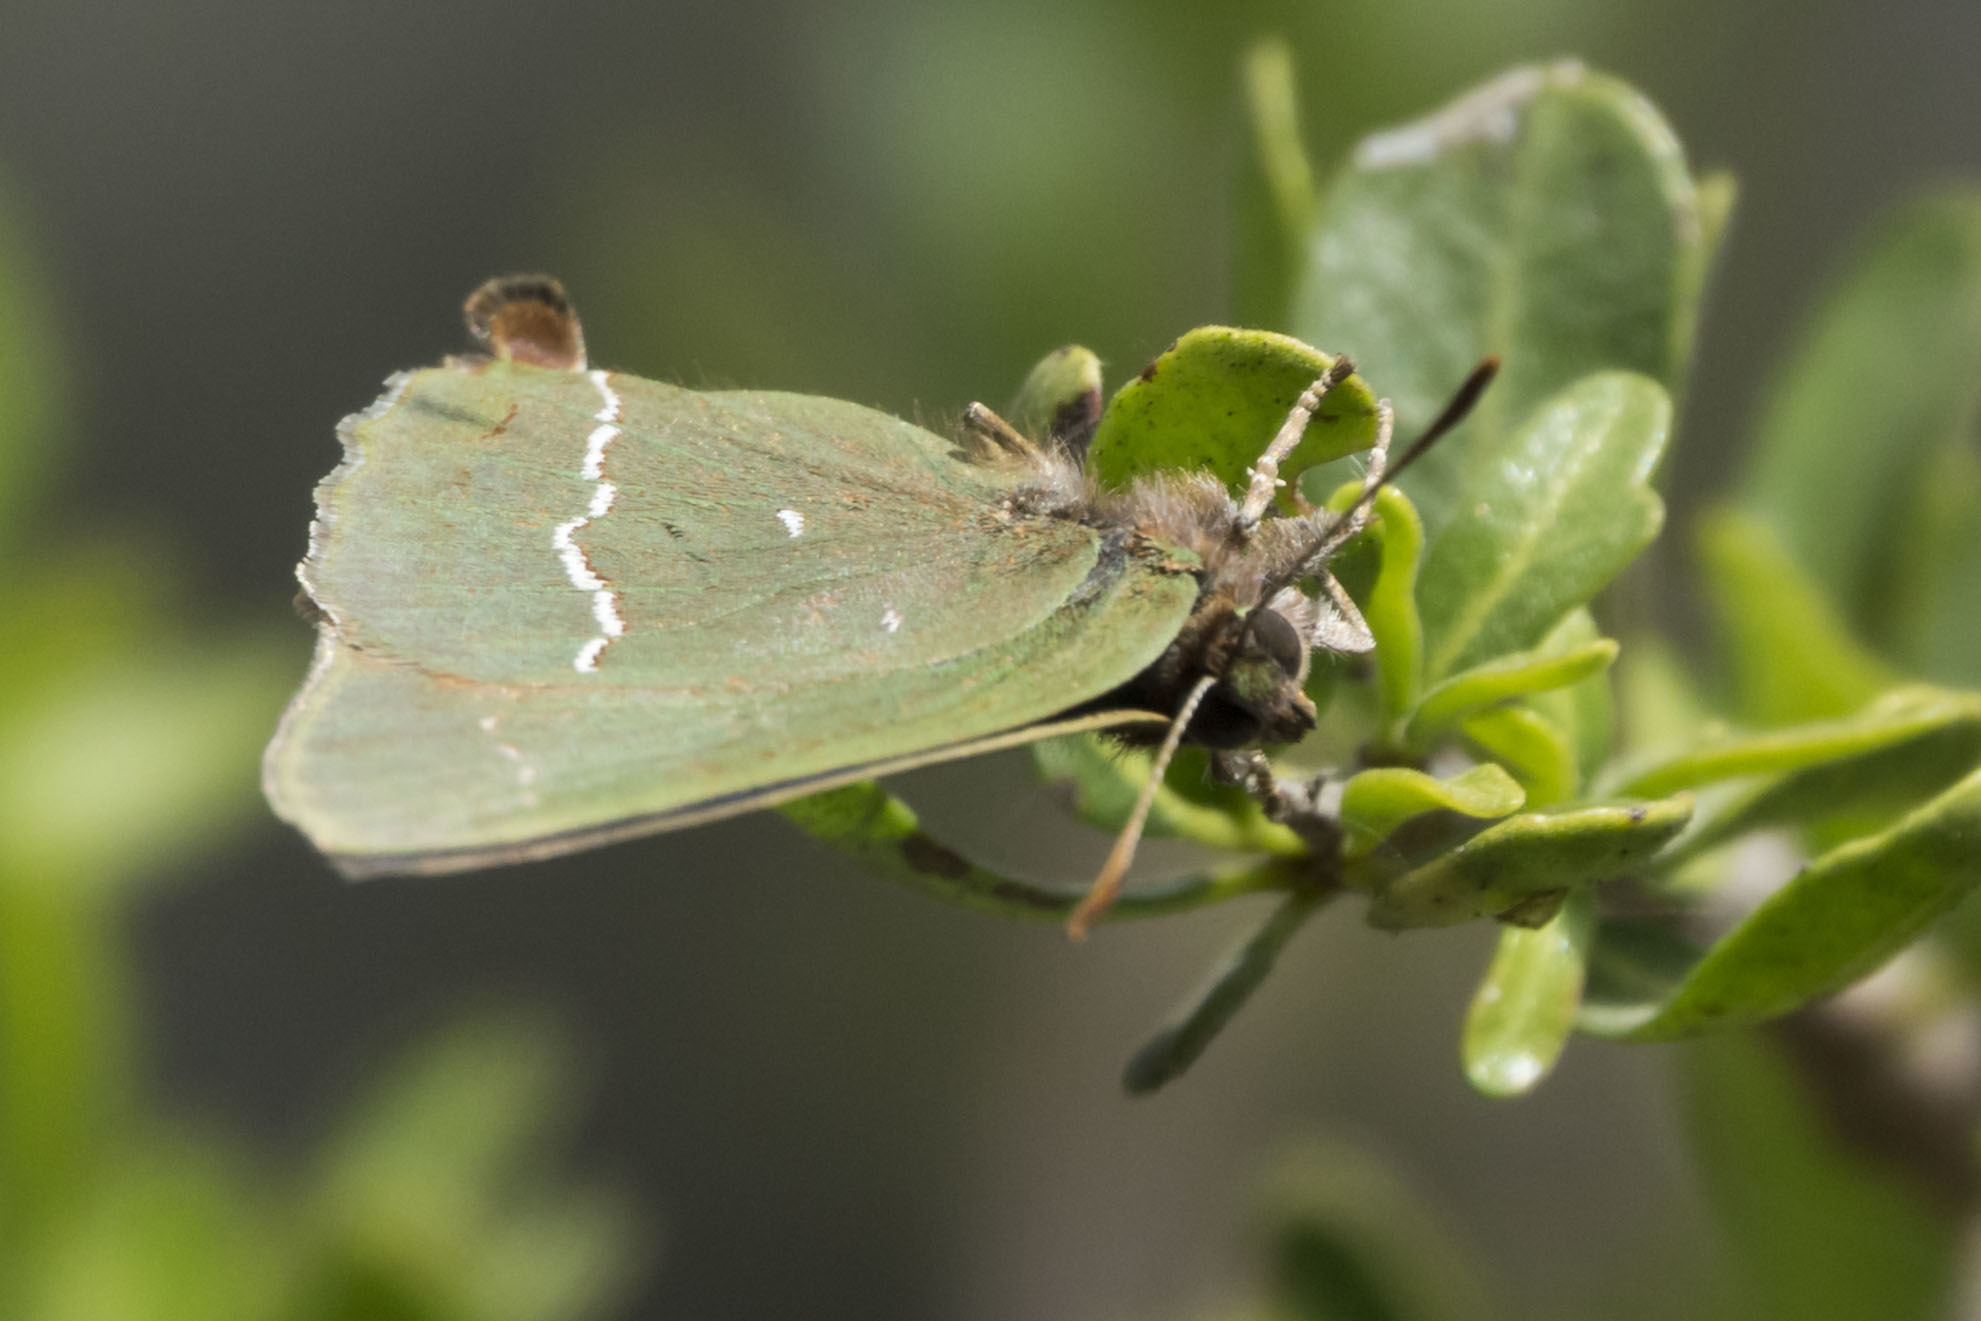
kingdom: Animalia
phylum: Arthropoda
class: Insecta
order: Lepidoptera
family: Lycaenidae
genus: Cyanophrys
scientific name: Cyanophrys
